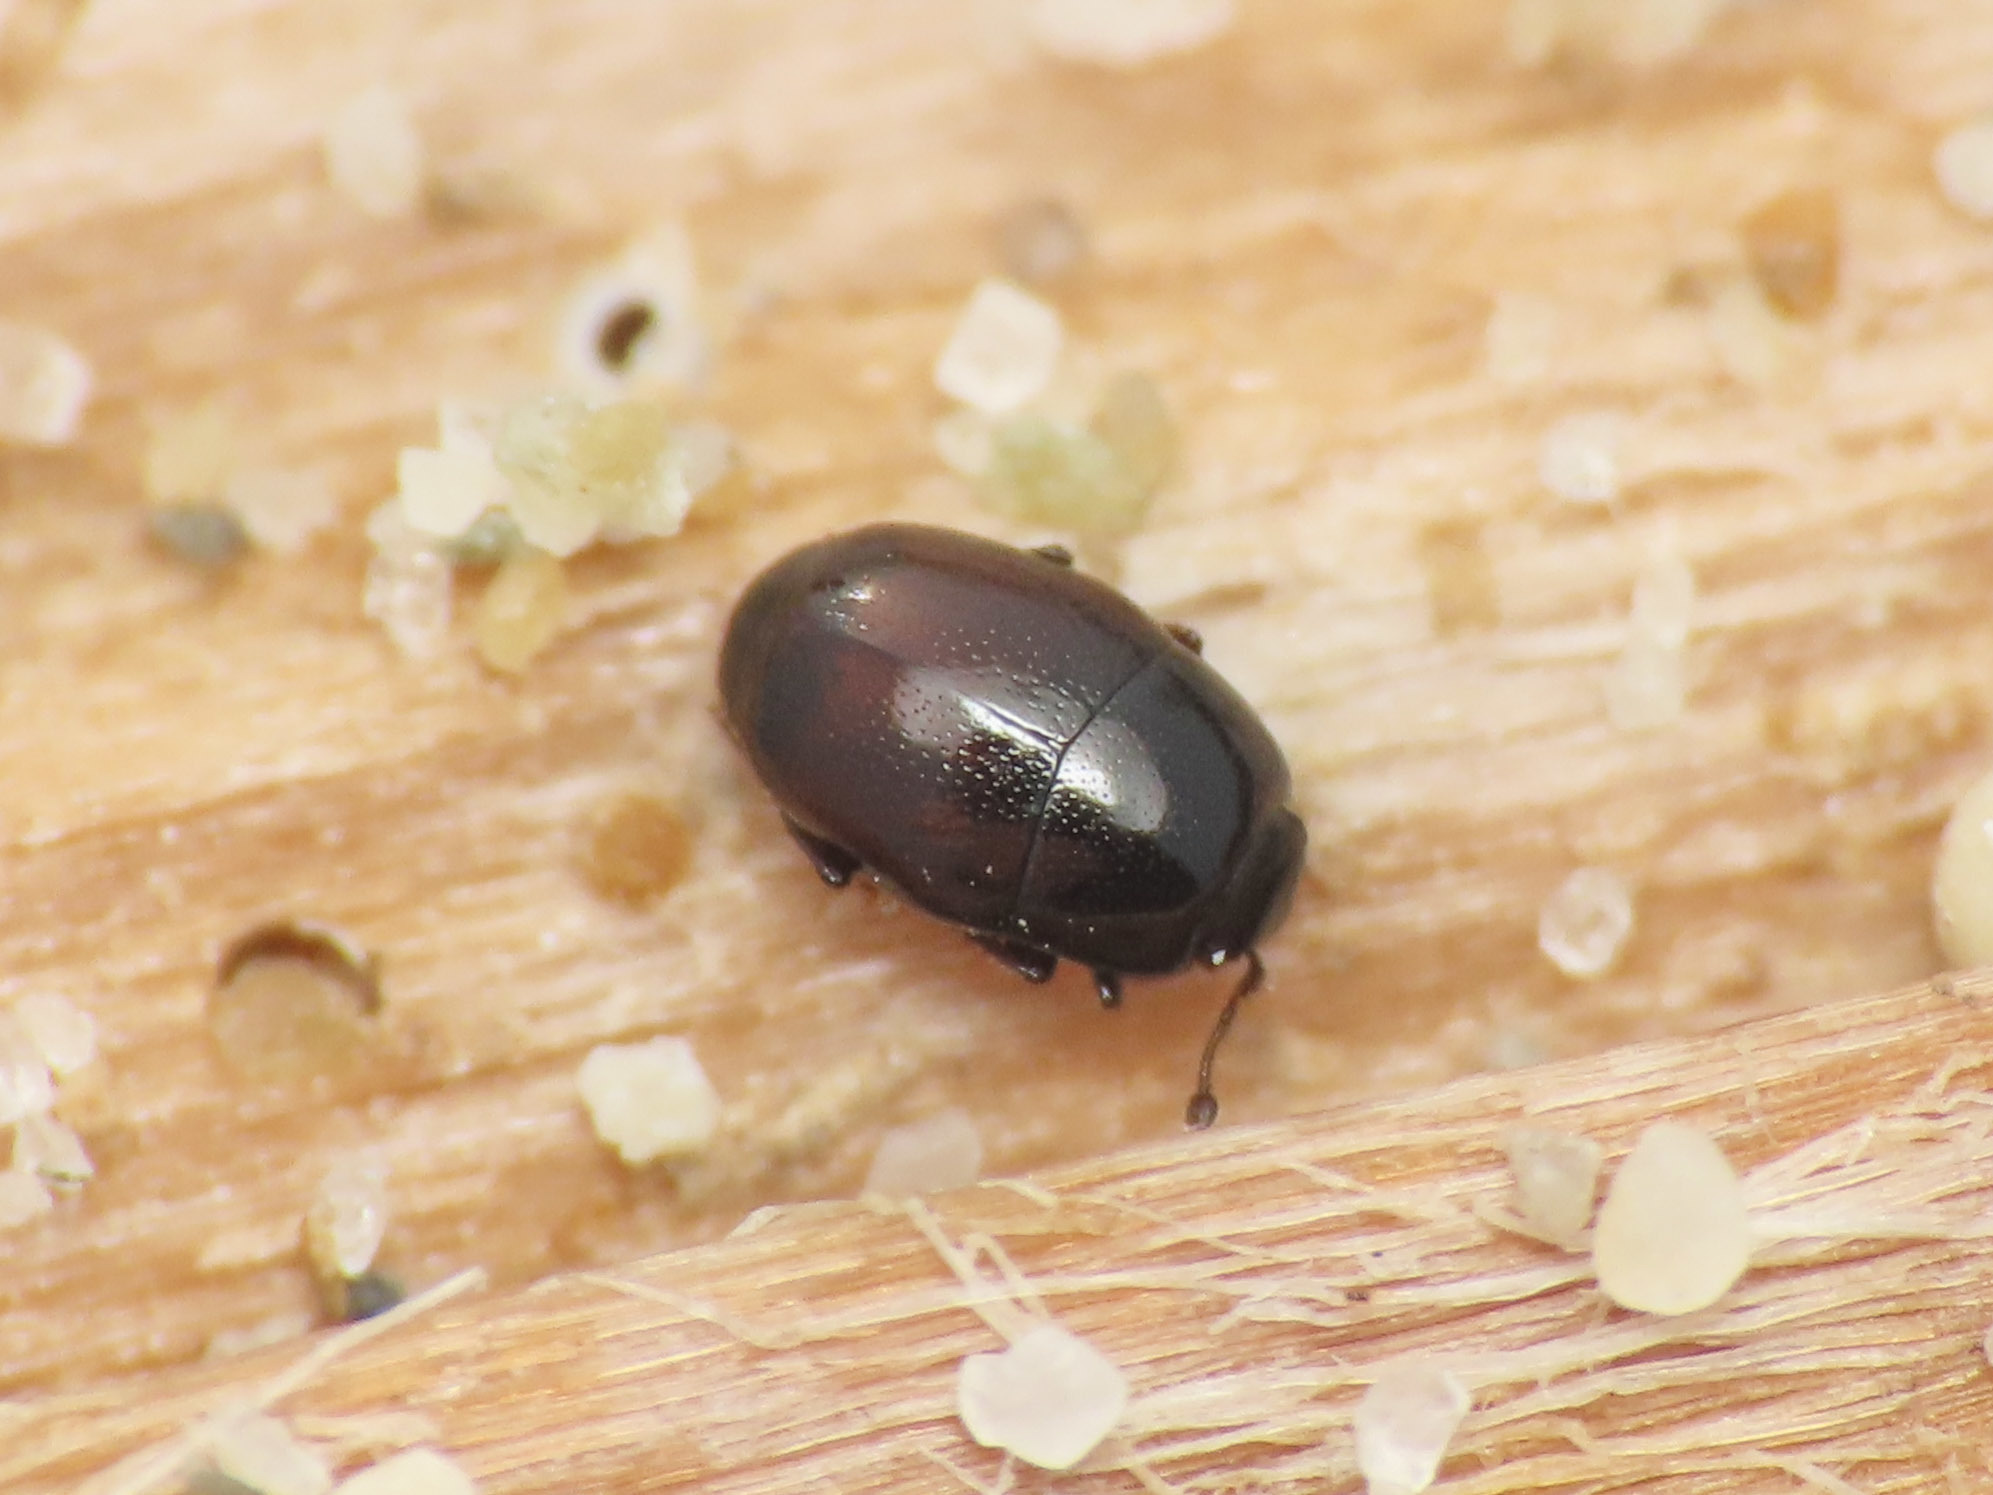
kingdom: Animalia
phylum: Arthropoda
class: Insecta
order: Coleoptera
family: Histeridae
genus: Halacritus
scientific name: Halacritus punctum
